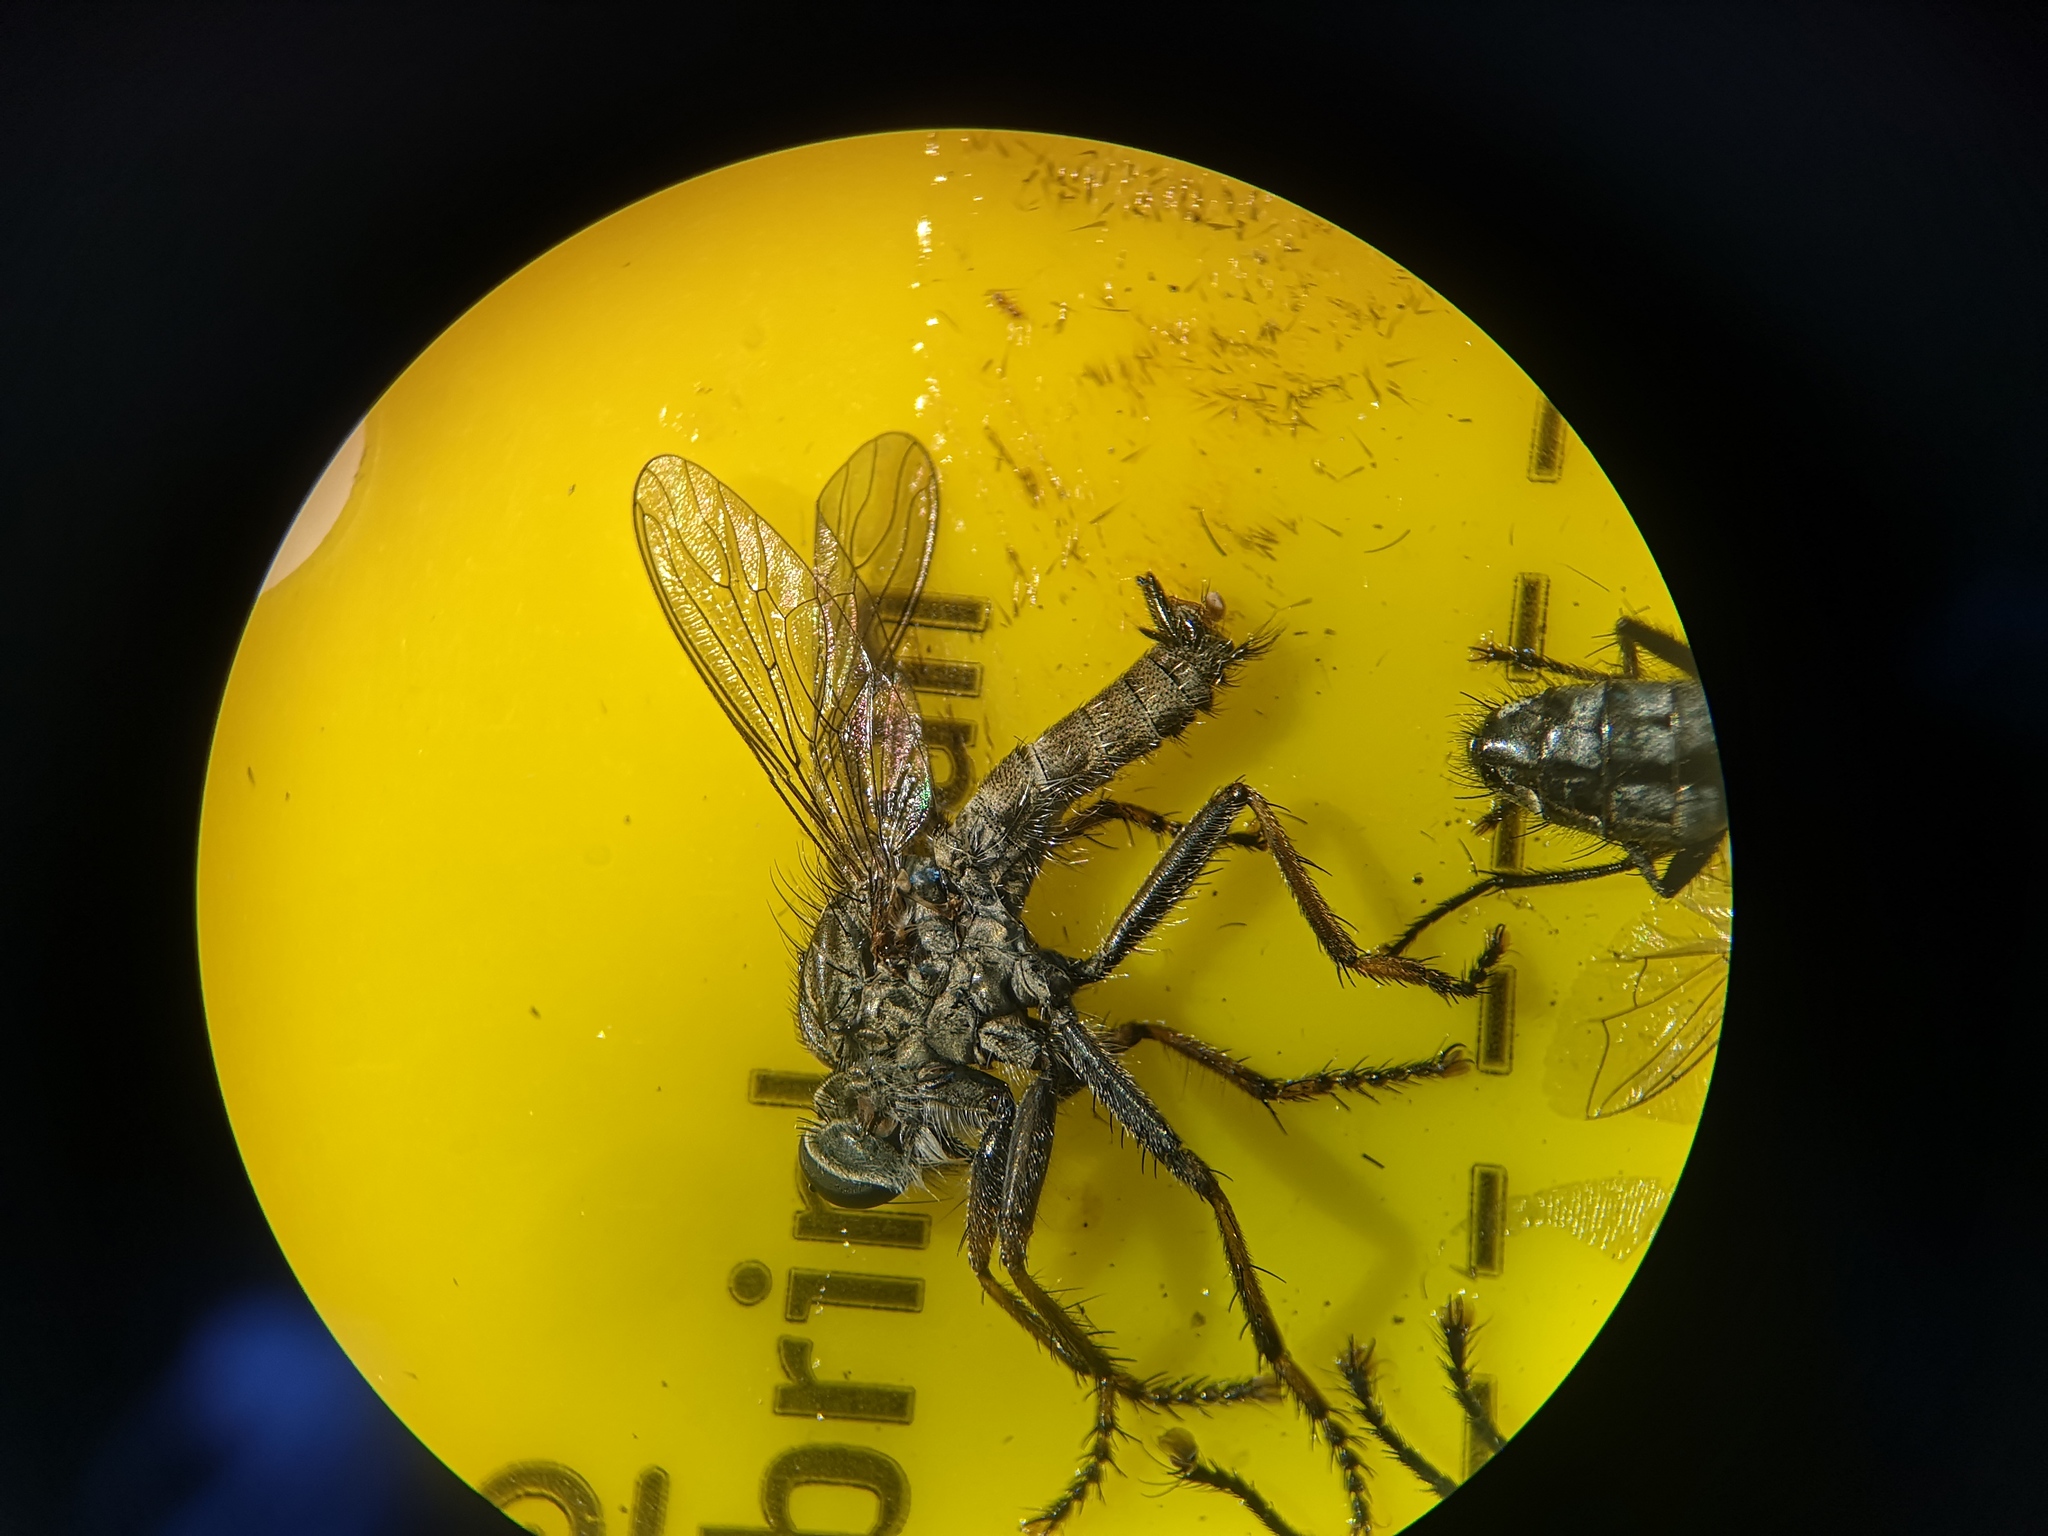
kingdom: Animalia
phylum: Arthropoda
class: Insecta
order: Diptera
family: Asilidae
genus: Machimus
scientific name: Machimus atricapillus
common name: Kite-tailed robberfly
